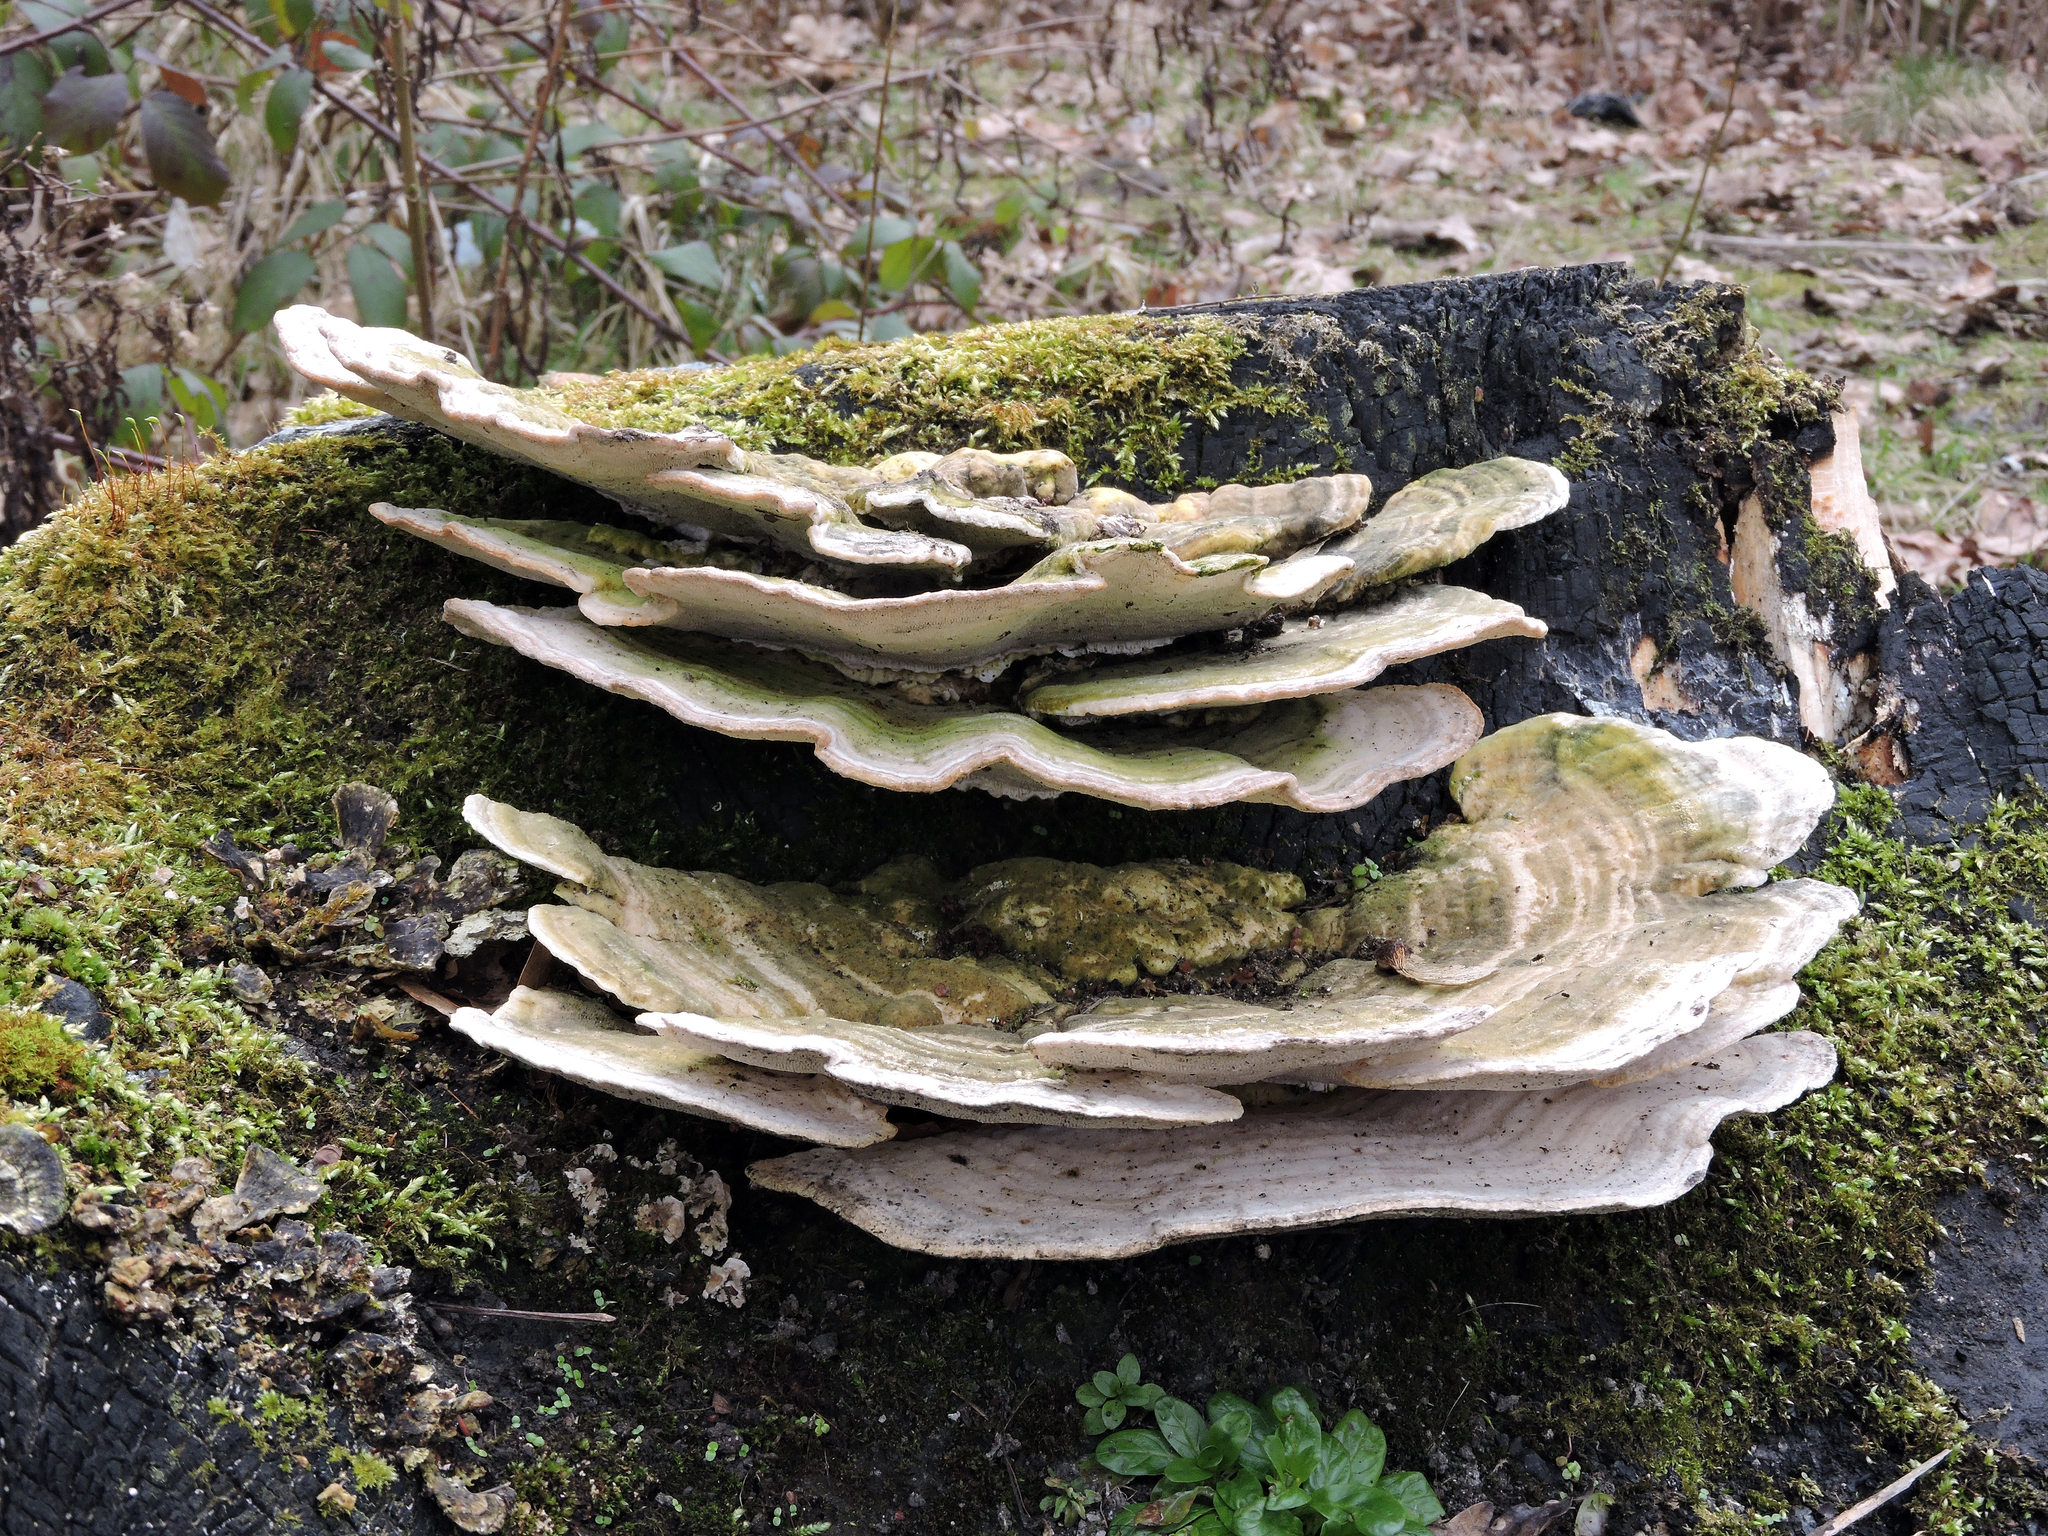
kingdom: Fungi
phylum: Basidiomycota
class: Agaricomycetes
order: Polyporales
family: Polyporaceae
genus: Trametes
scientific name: Trametes gibbosa
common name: Lumpy bracket
